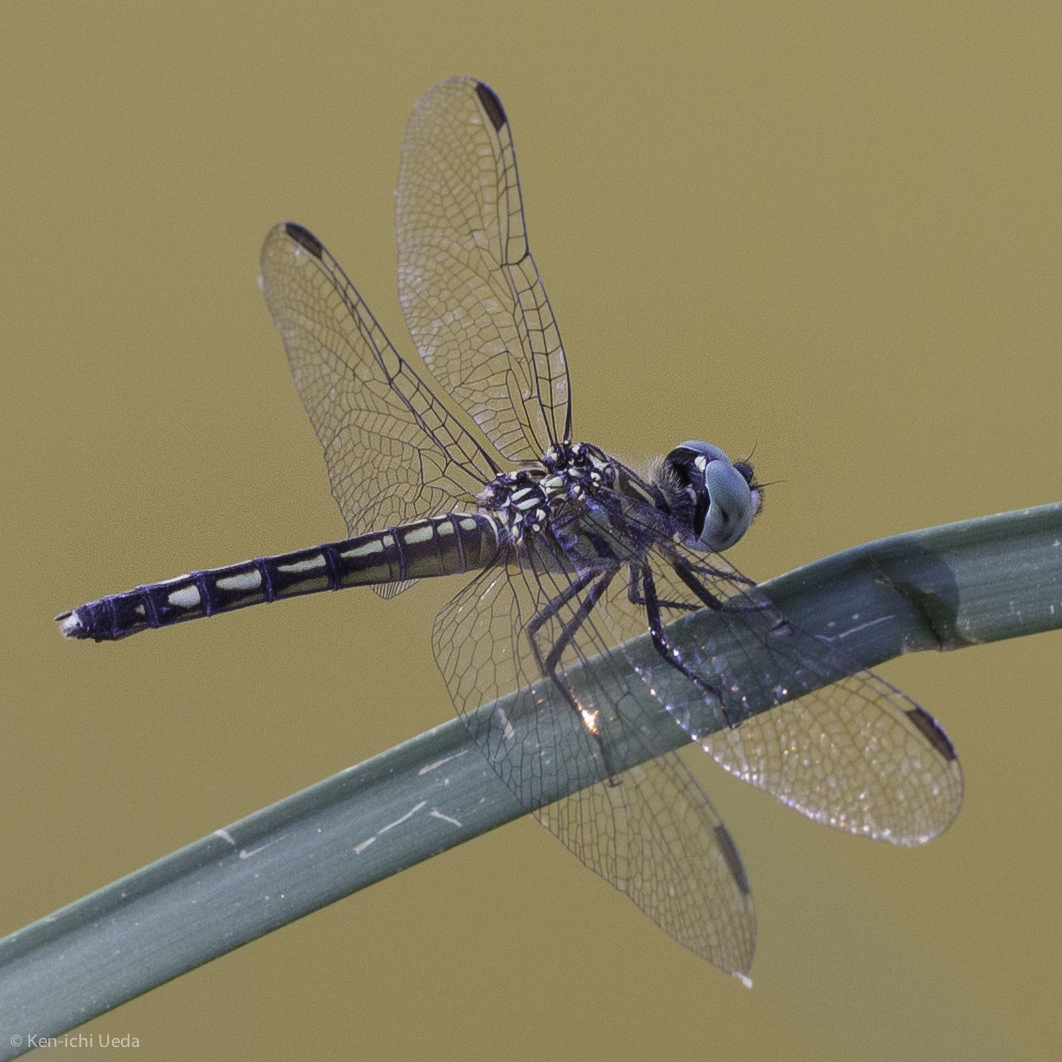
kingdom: Animalia
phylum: Arthropoda
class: Insecta
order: Odonata
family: Libellulidae
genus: Pachydiplax
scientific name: Pachydiplax longipennis
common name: Blue dasher
